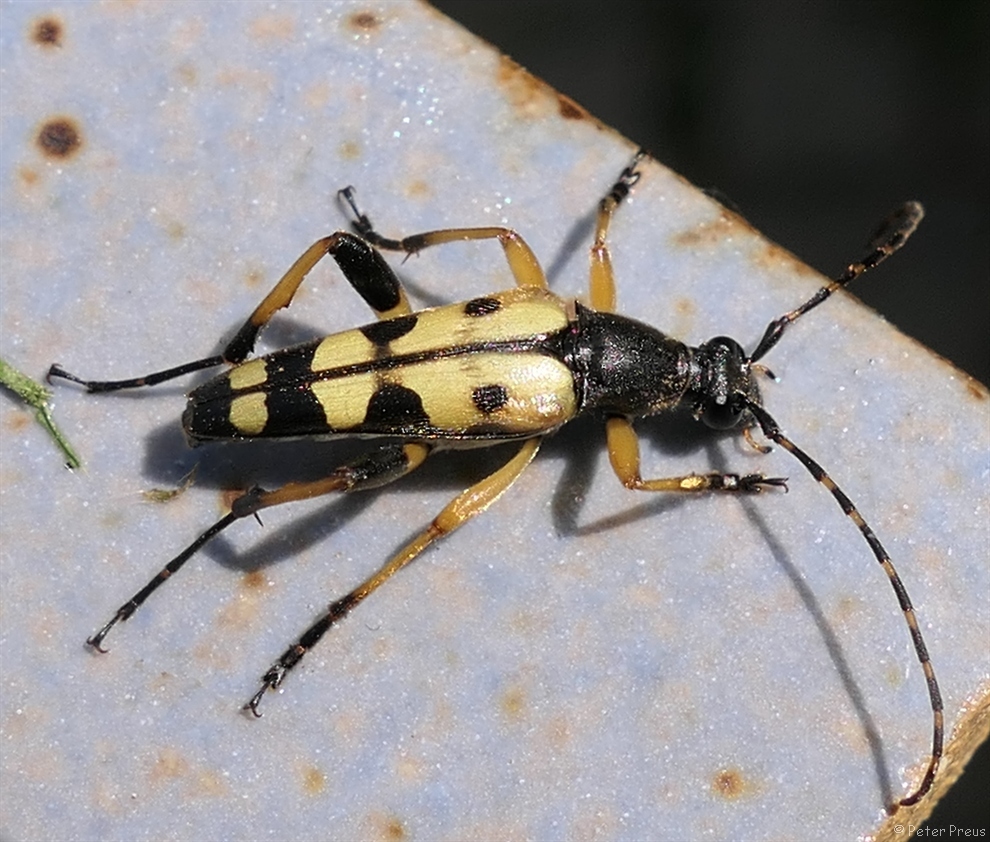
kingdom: Animalia
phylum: Arthropoda
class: Insecta
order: Coleoptera
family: Cerambycidae
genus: Rutpela
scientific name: Rutpela maculata
